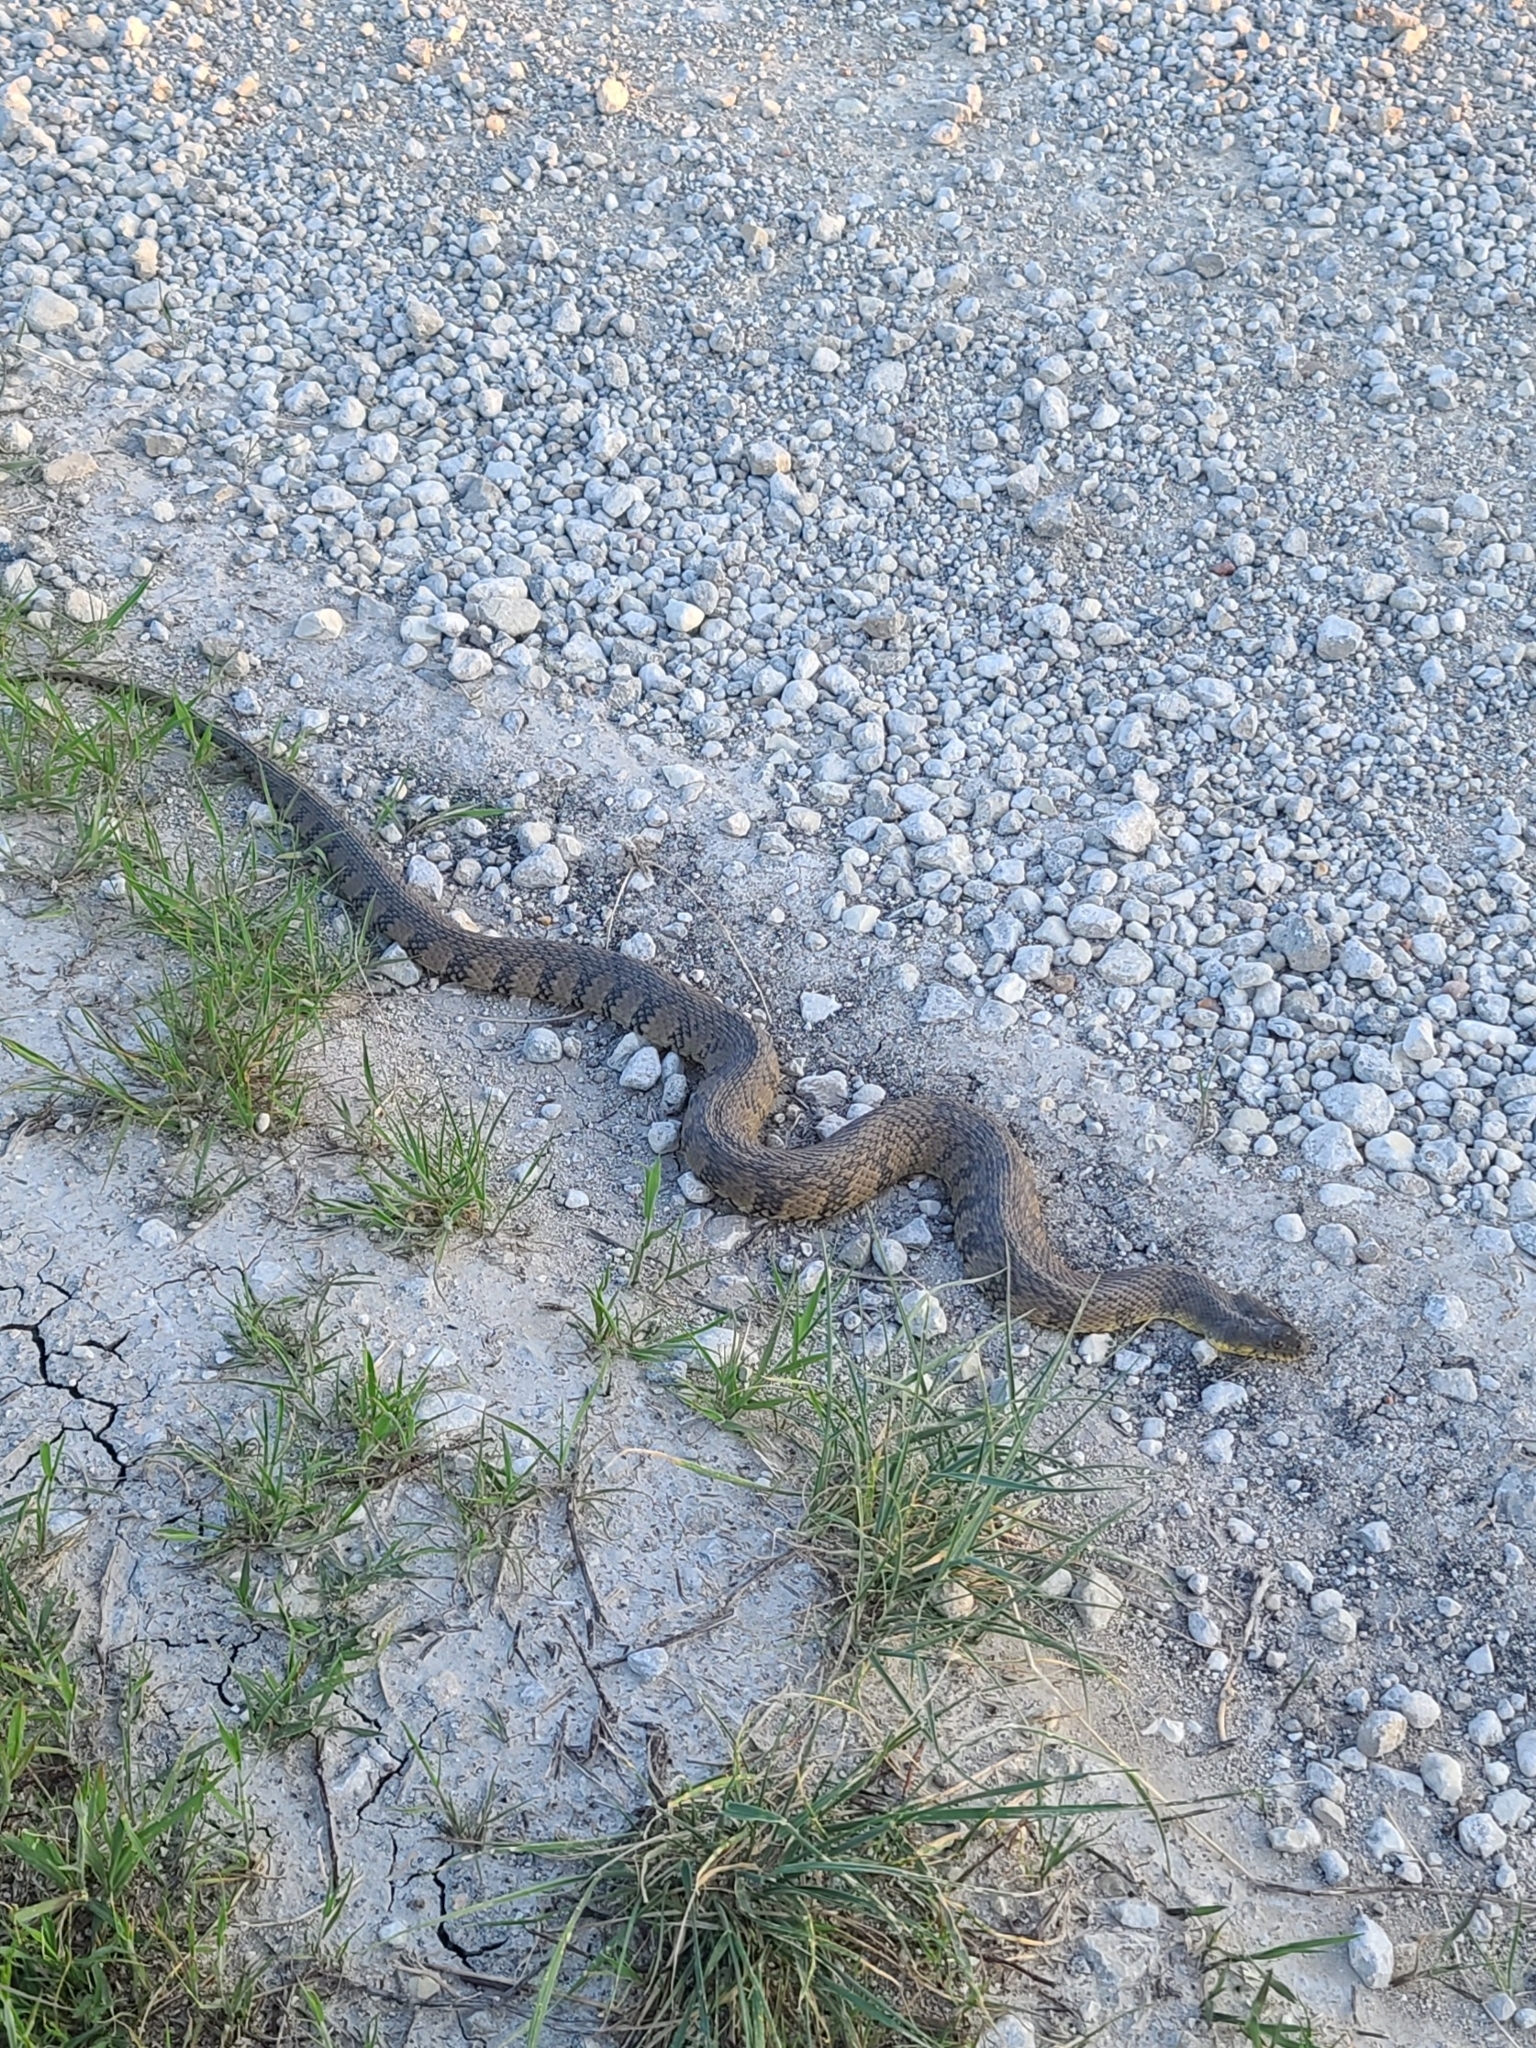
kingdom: Animalia
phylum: Chordata
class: Squamata
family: Colubridae
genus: Nerodia
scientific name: Nerodia rhombifer
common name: Diamondback water snake
